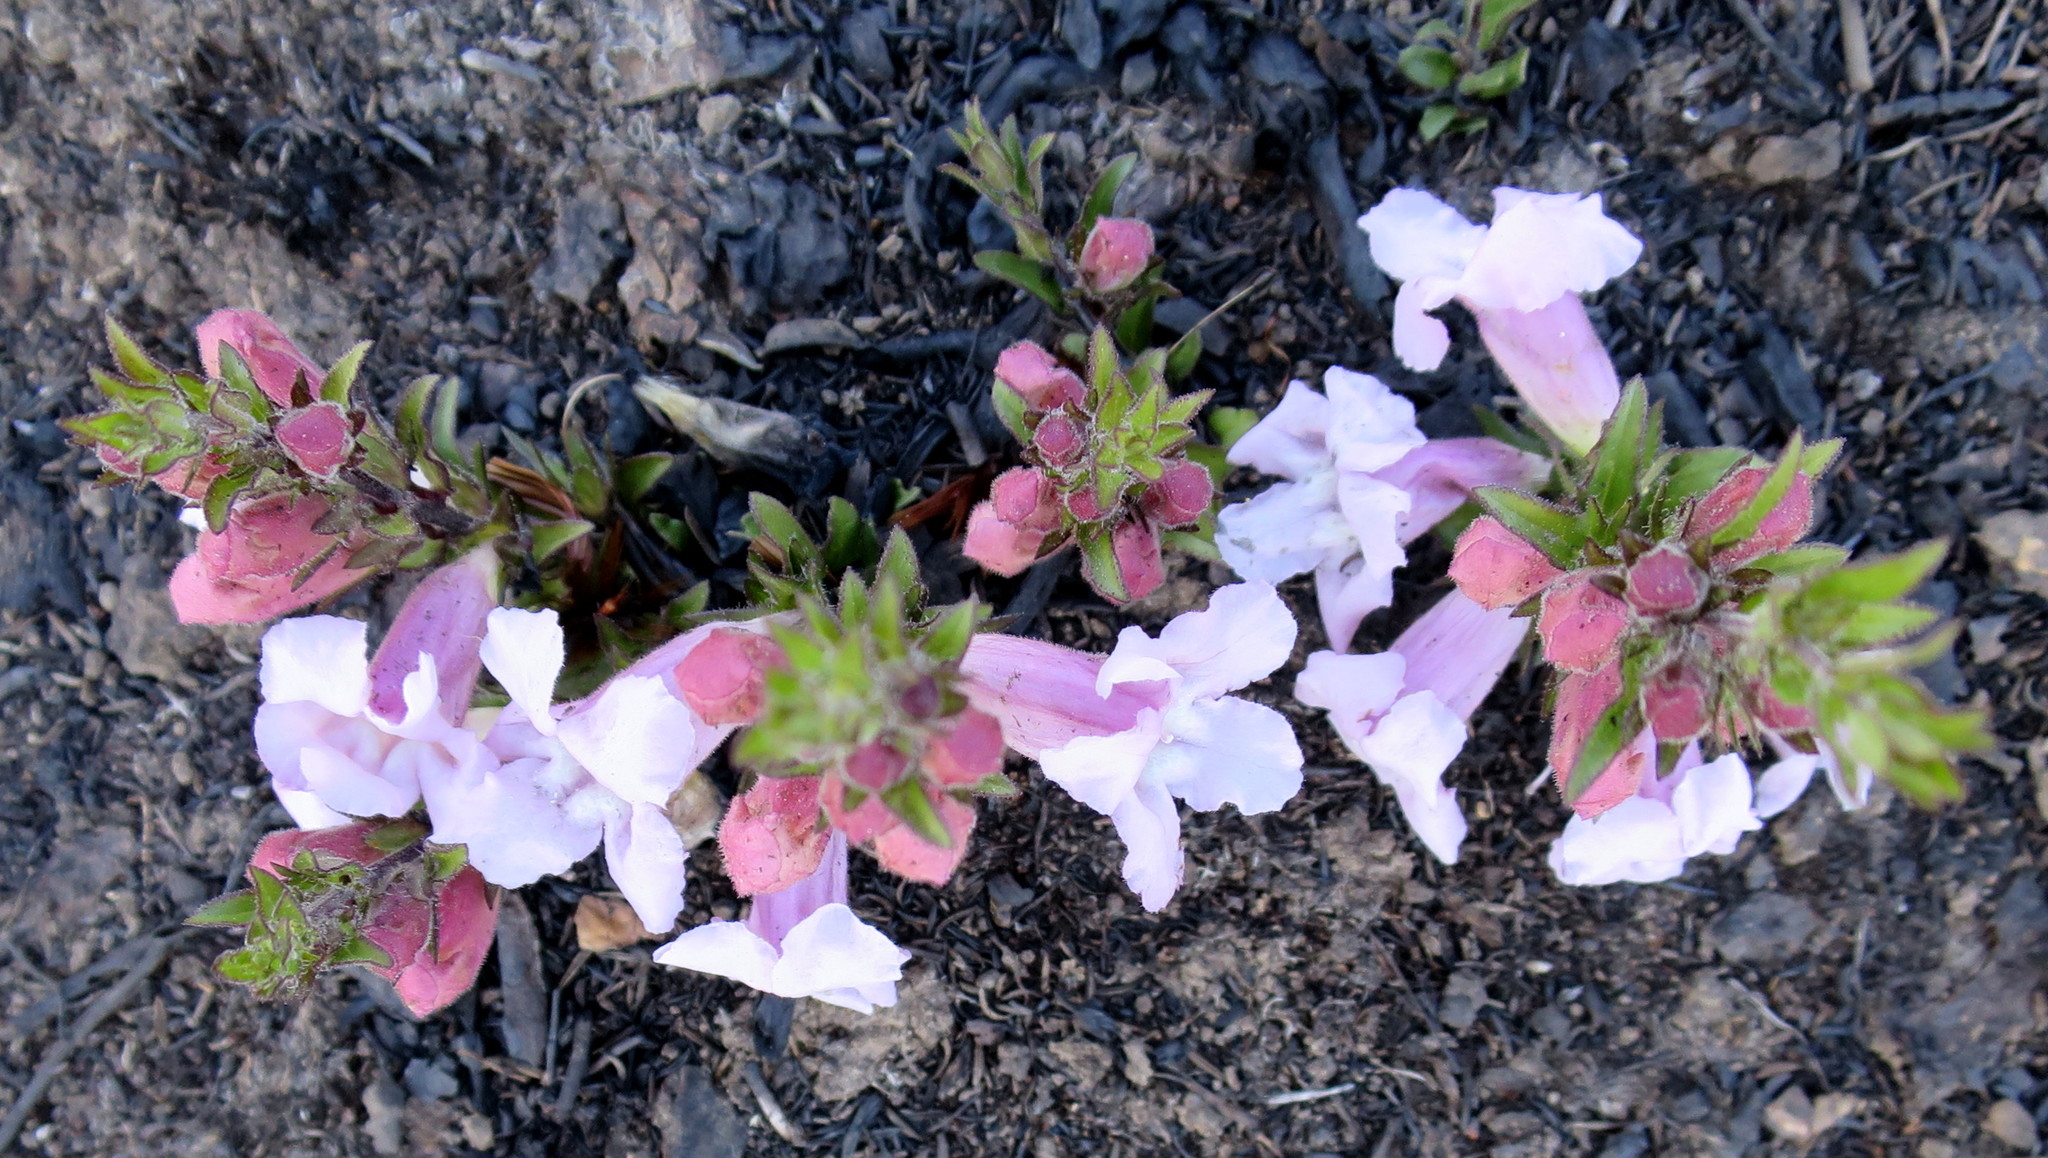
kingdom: Plantae
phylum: Tracheophyta
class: Magnoliopsida
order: Lamiales
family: Orobanchaceae
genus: Graderia
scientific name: Graderia scabra
